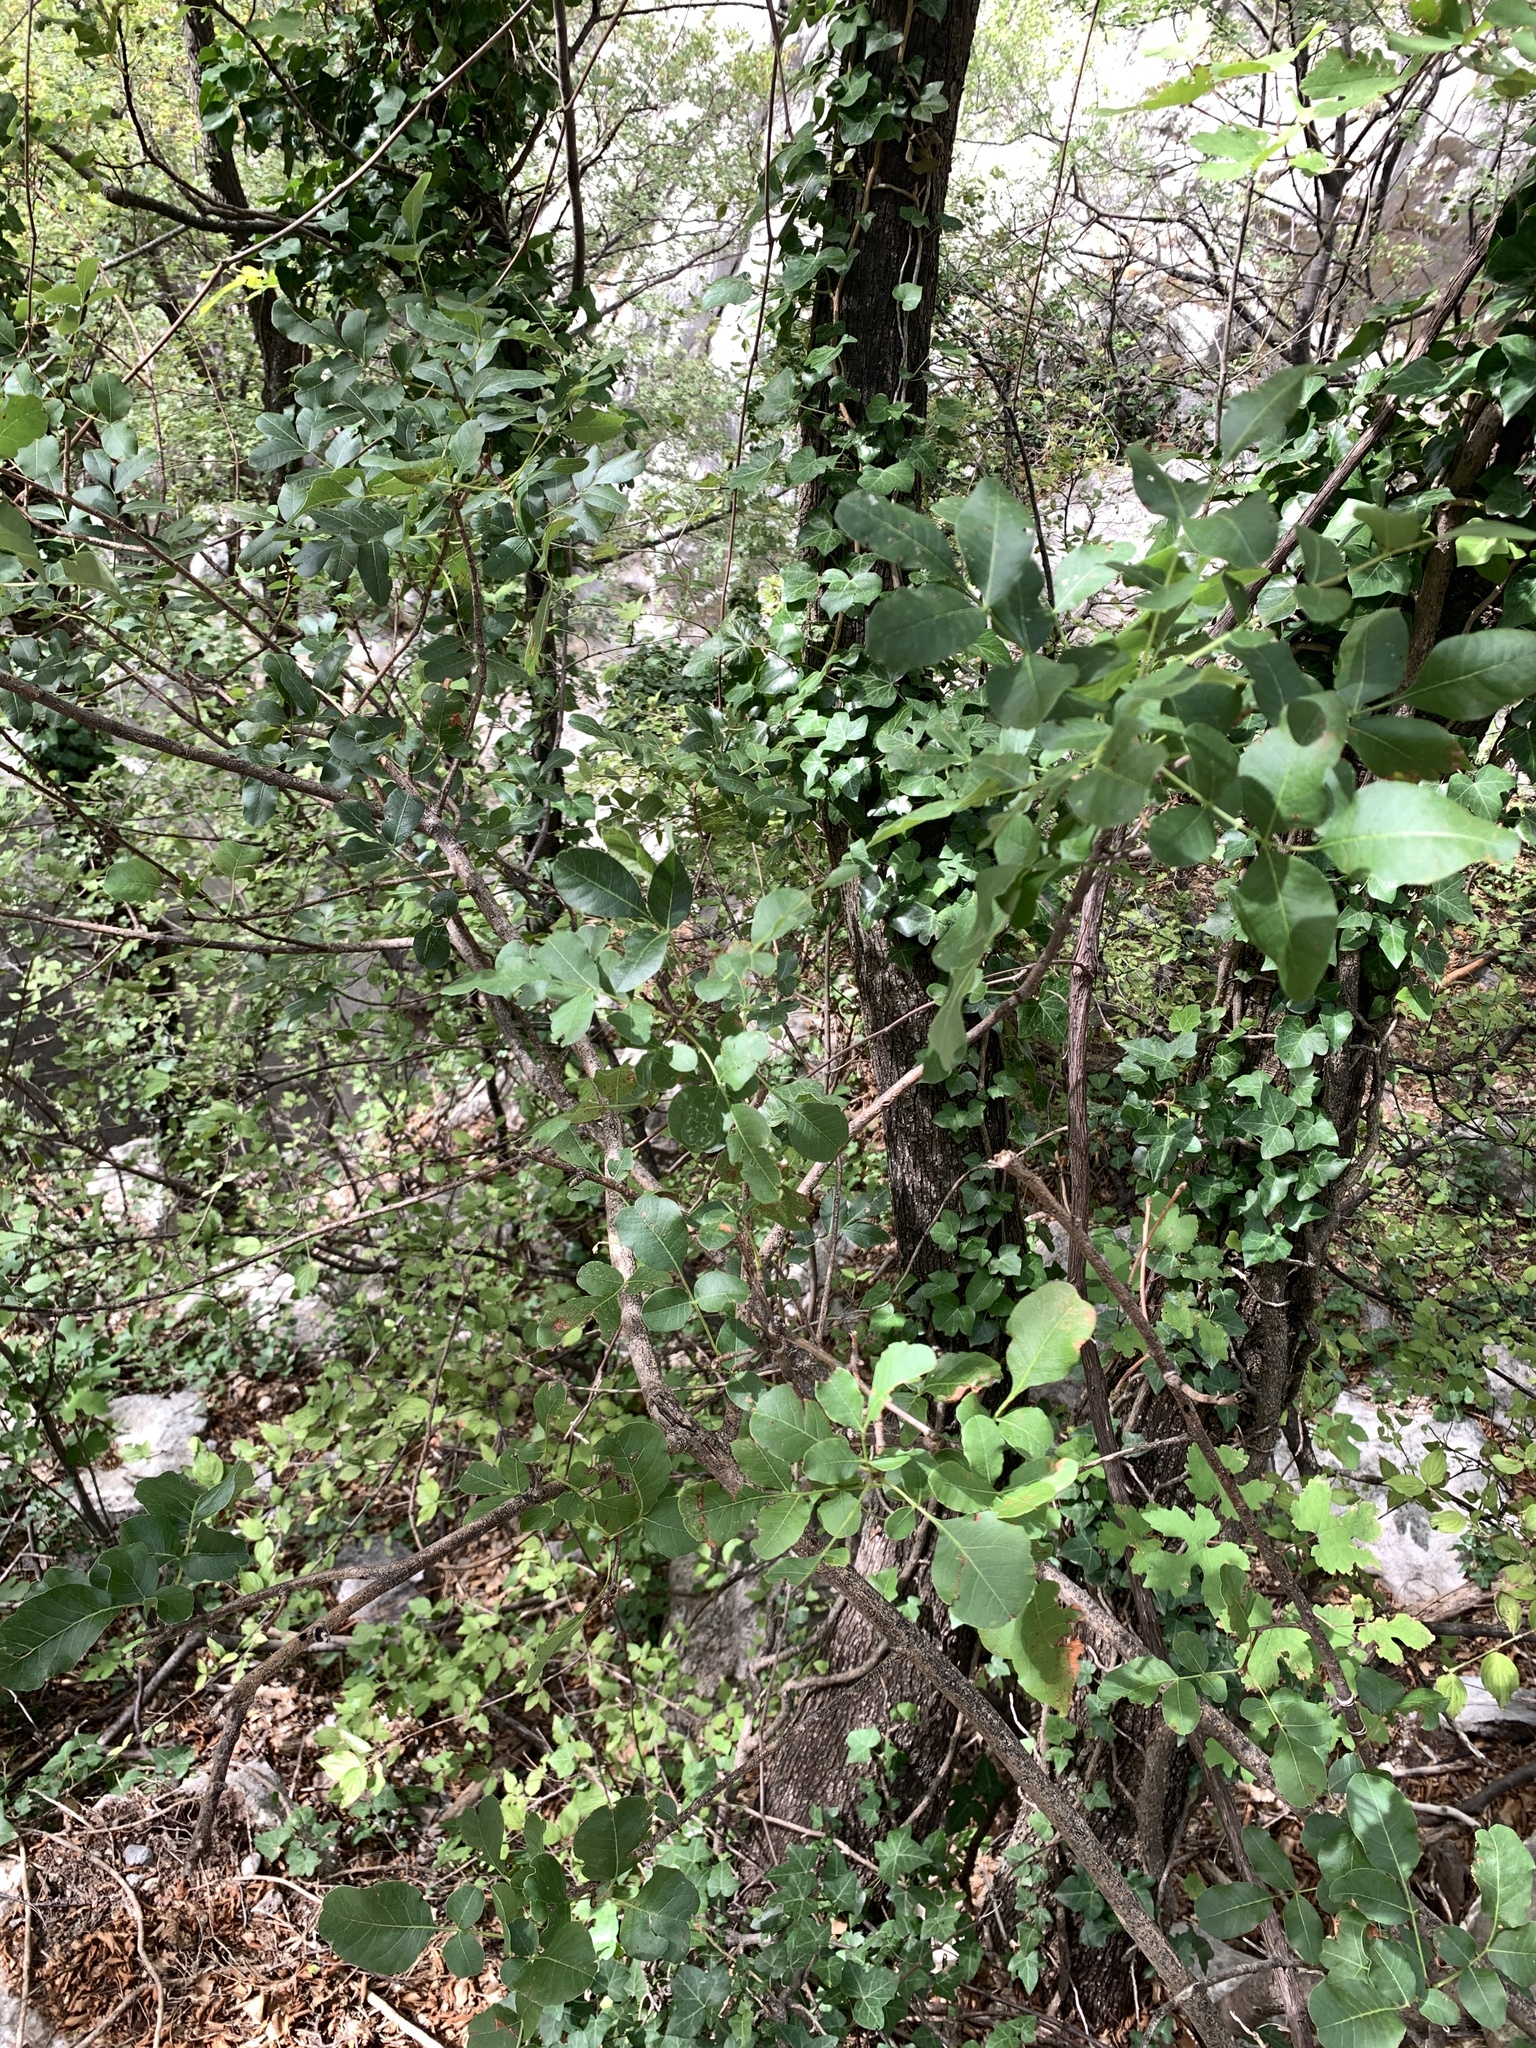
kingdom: Plantae
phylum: Tracheophyta
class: Magnoliopsida
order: Sapindales
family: Anacardiaceae
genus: Pistacia
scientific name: Pistacia terebinthus
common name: Terebinth
